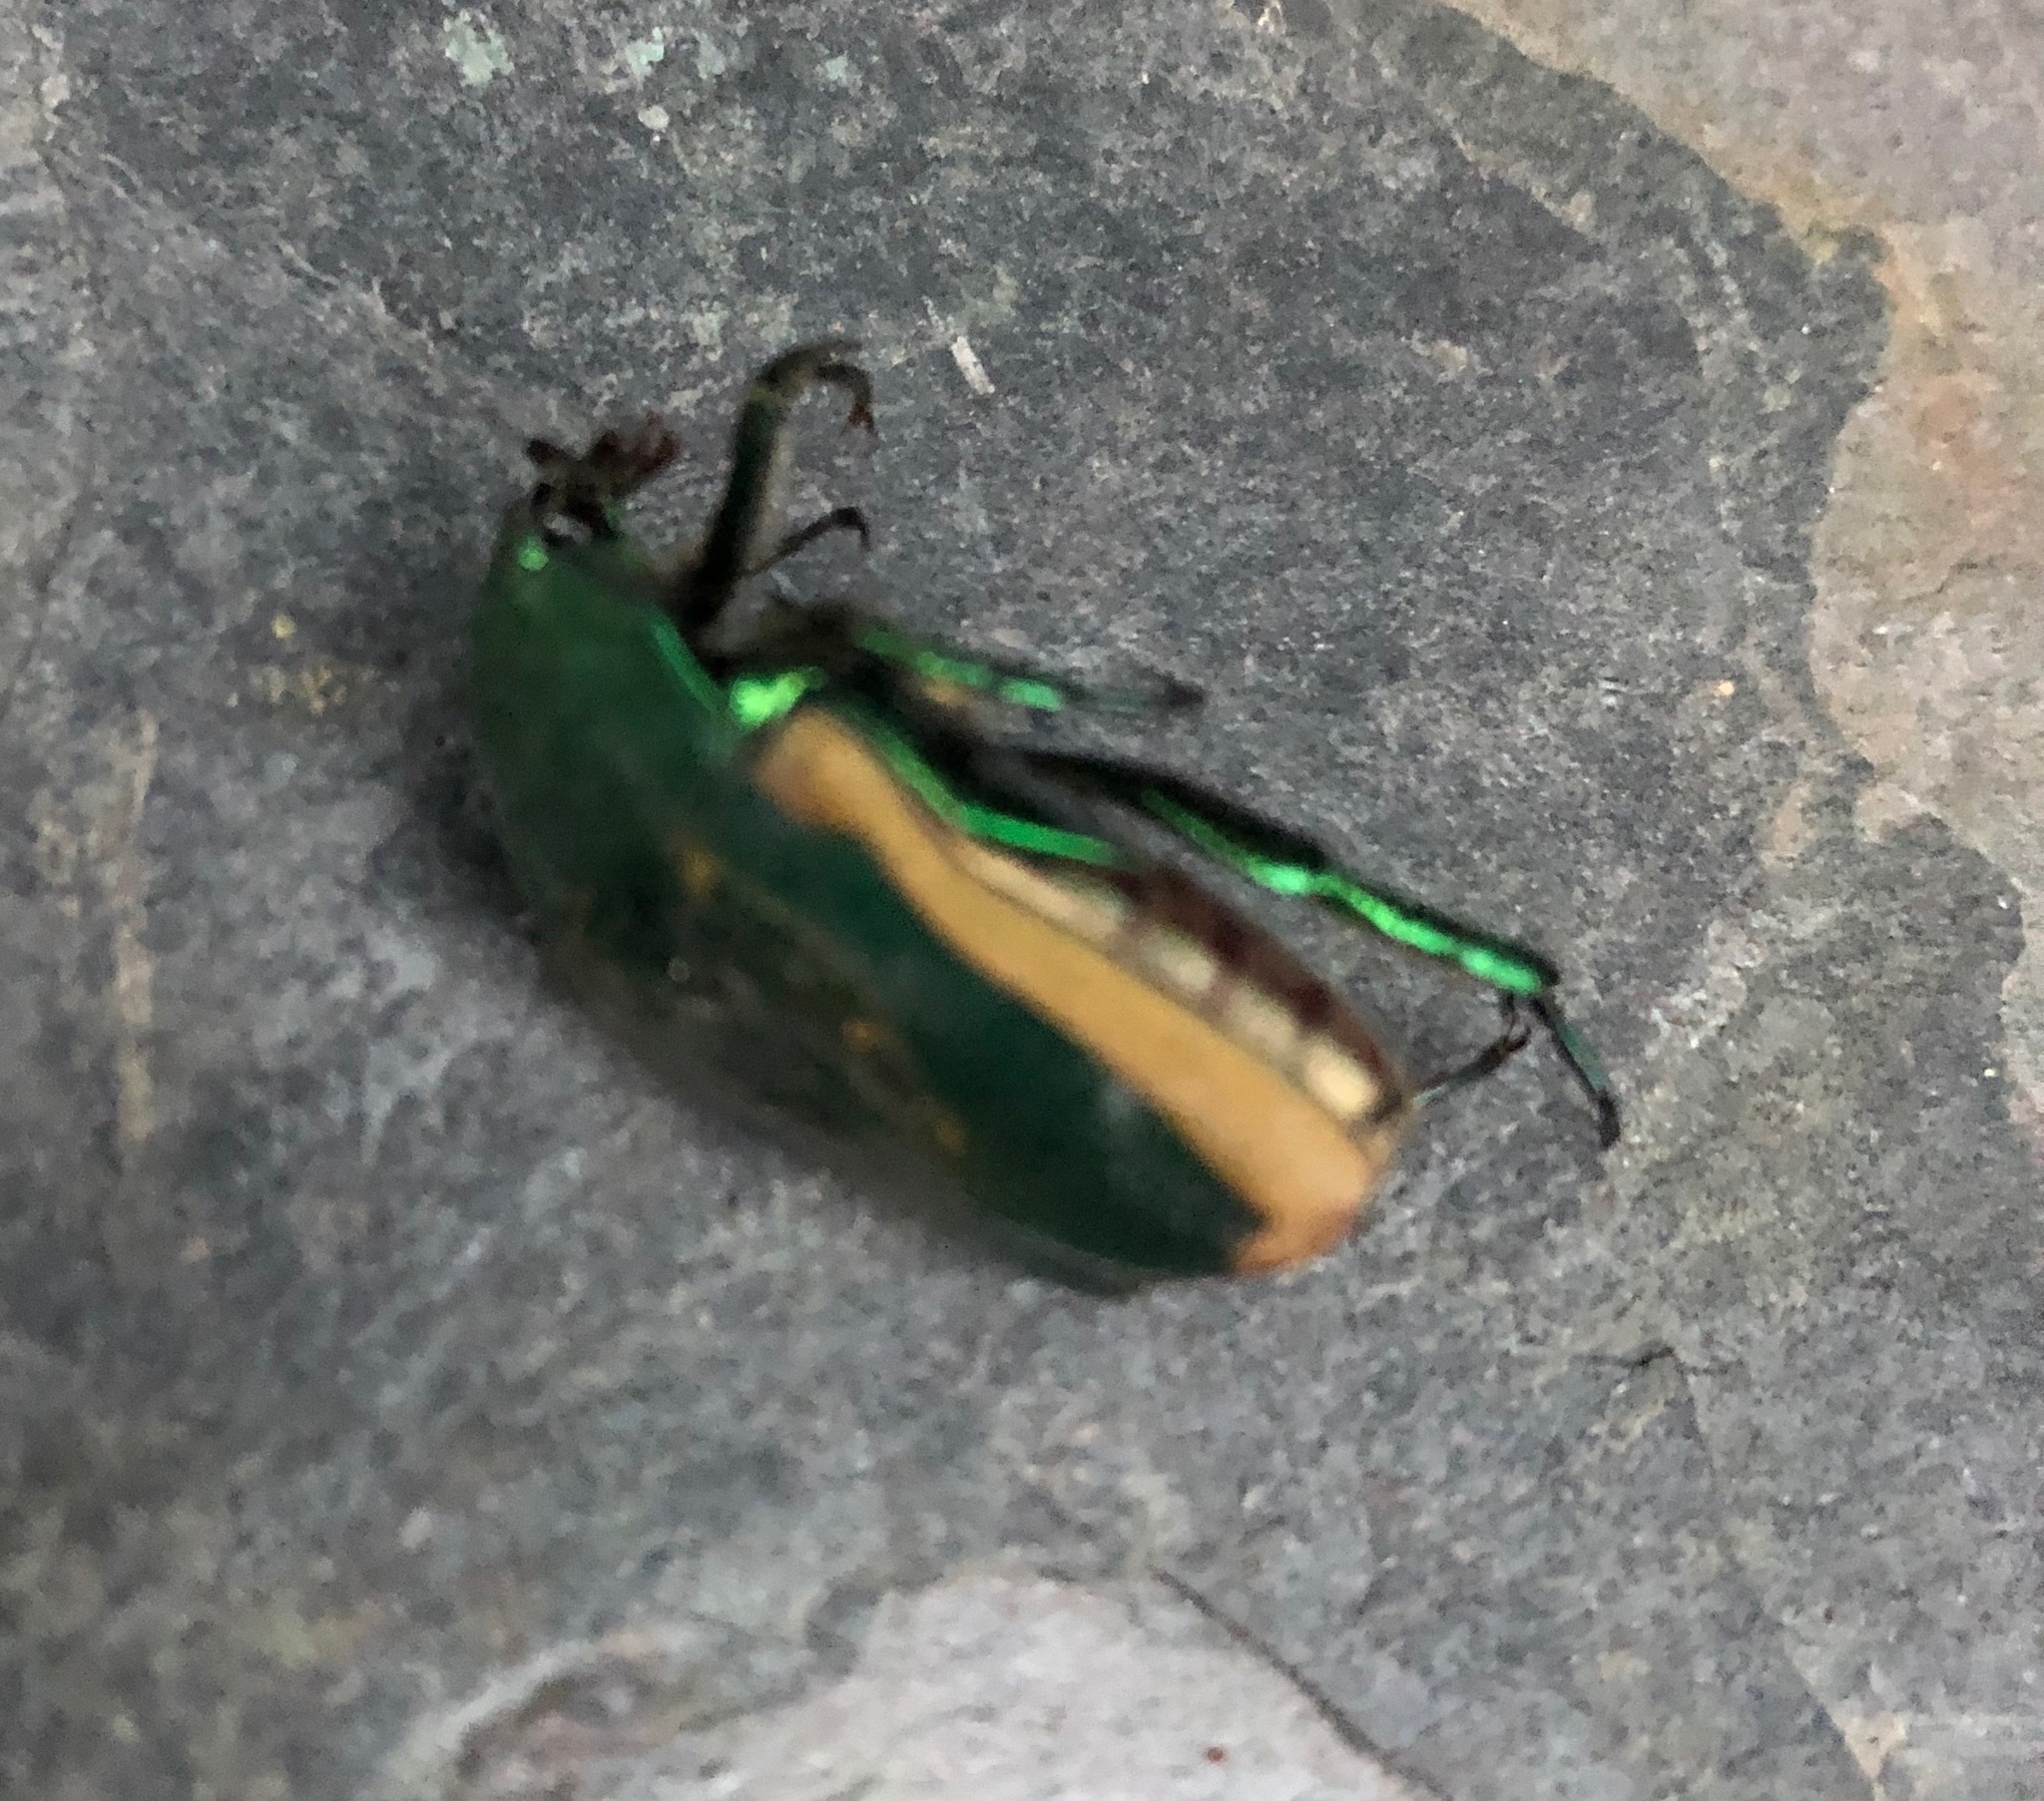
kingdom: Animalia
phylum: Arthropoda
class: Insecta
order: Coleoptera
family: Scarabaeidae
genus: Cotinis
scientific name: Cotinis mutabilis
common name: Figeater beetle
